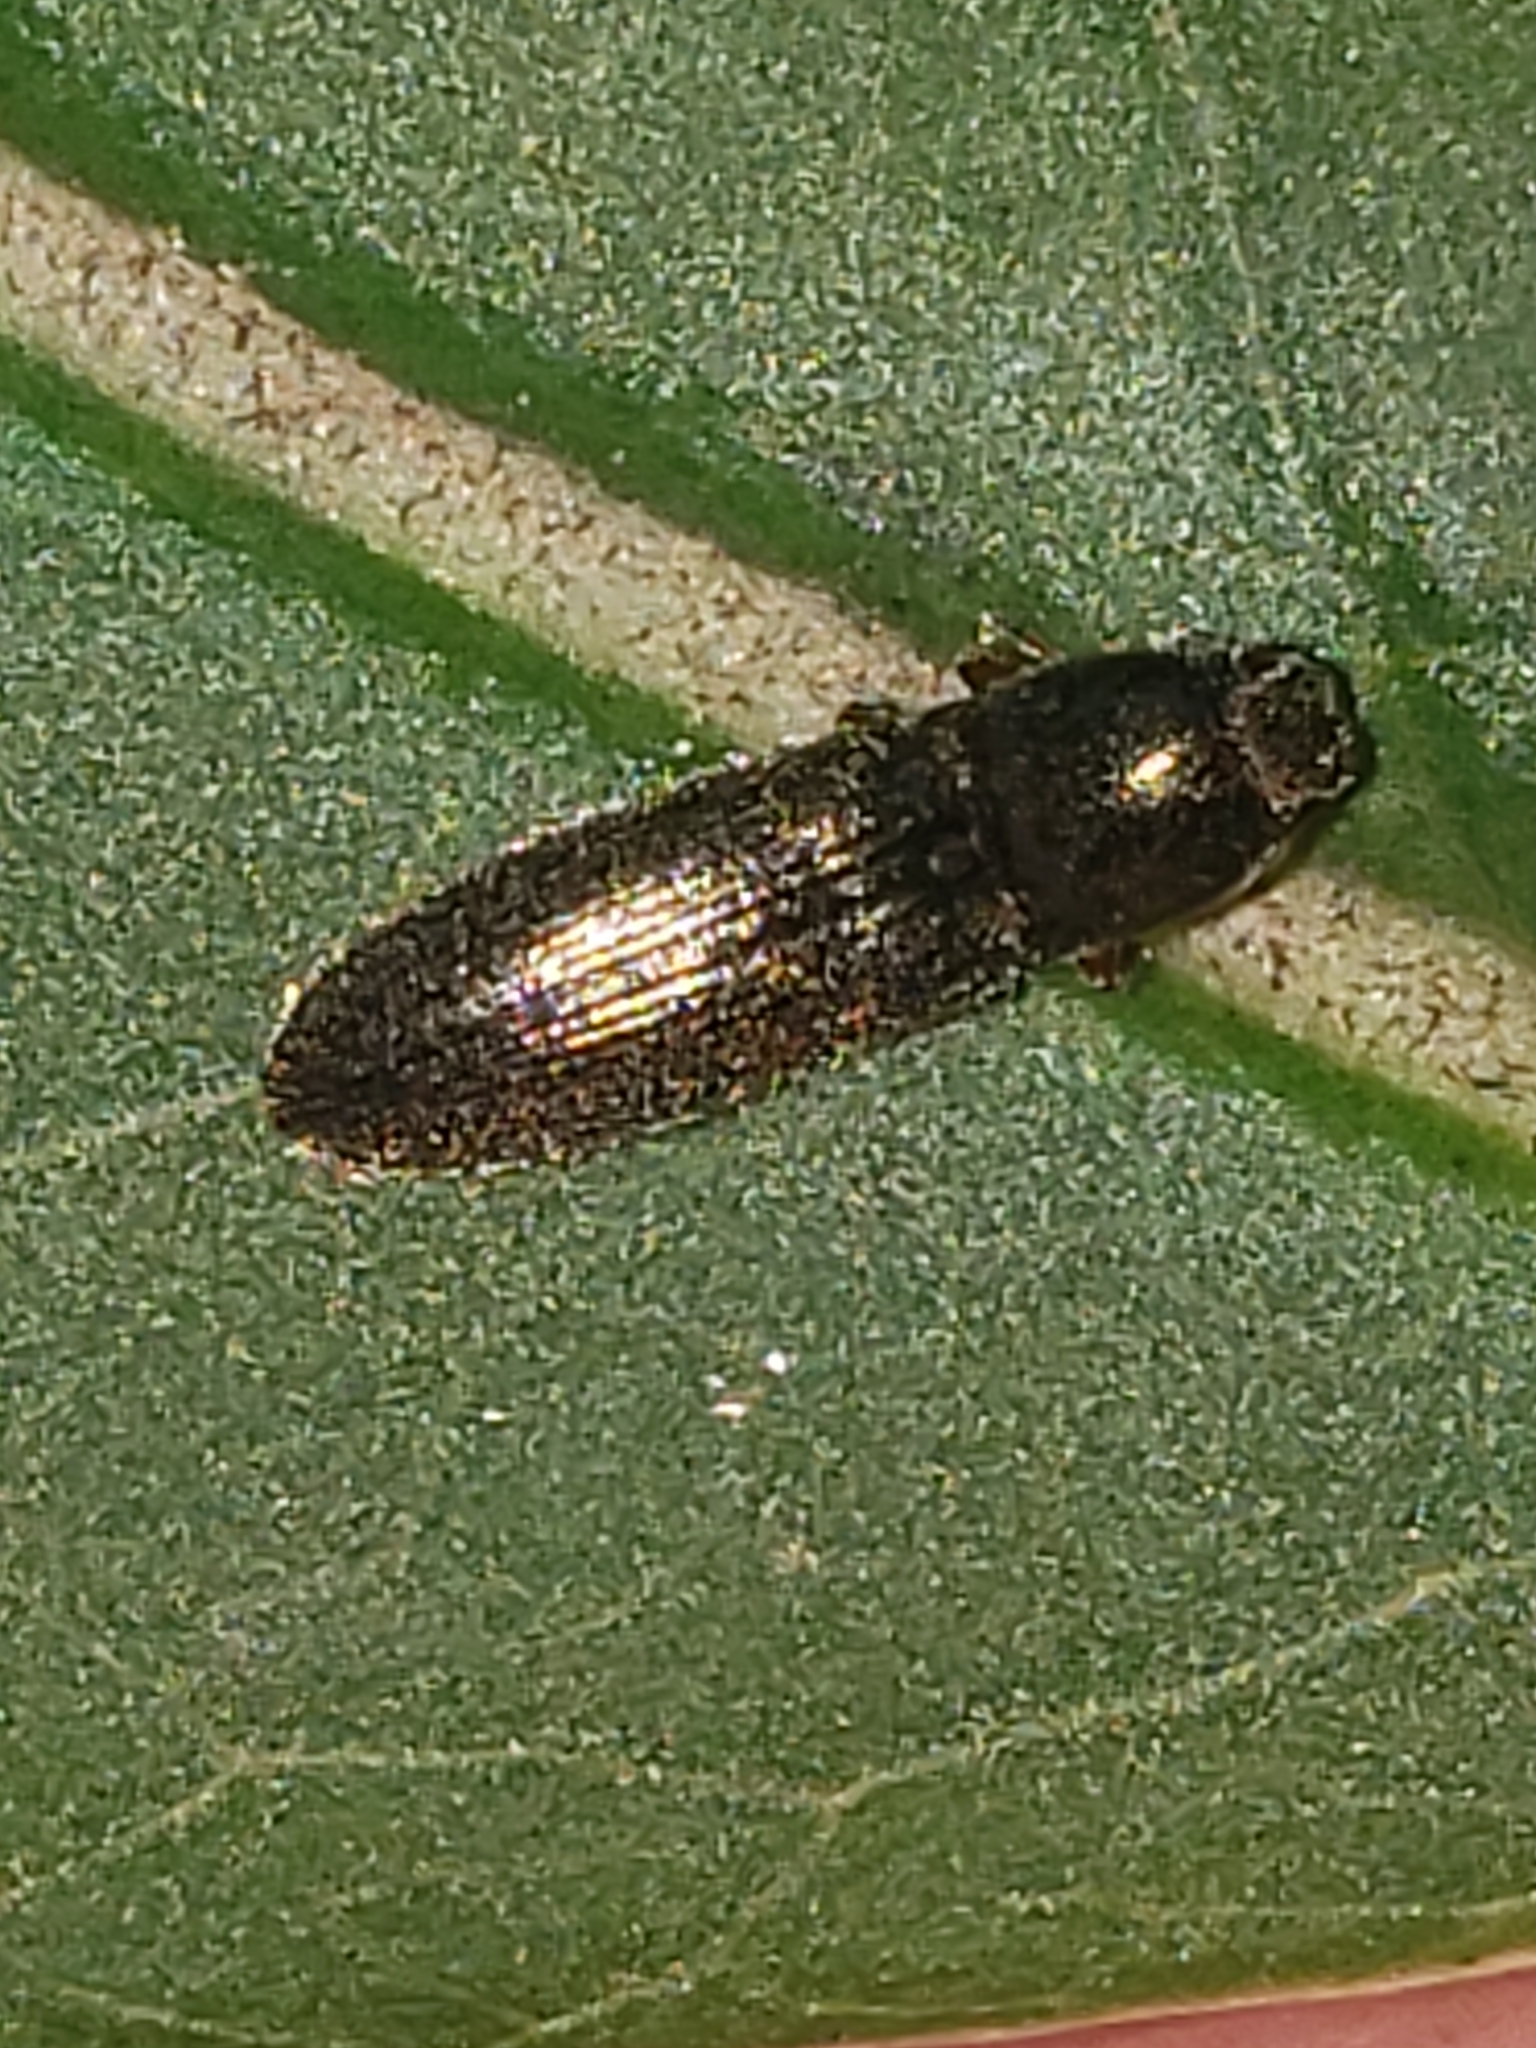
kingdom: Animalia
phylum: Arthropoda
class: Insecta
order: Coleoptera
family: Elateridae
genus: Limonius
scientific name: Limonius quercinus
